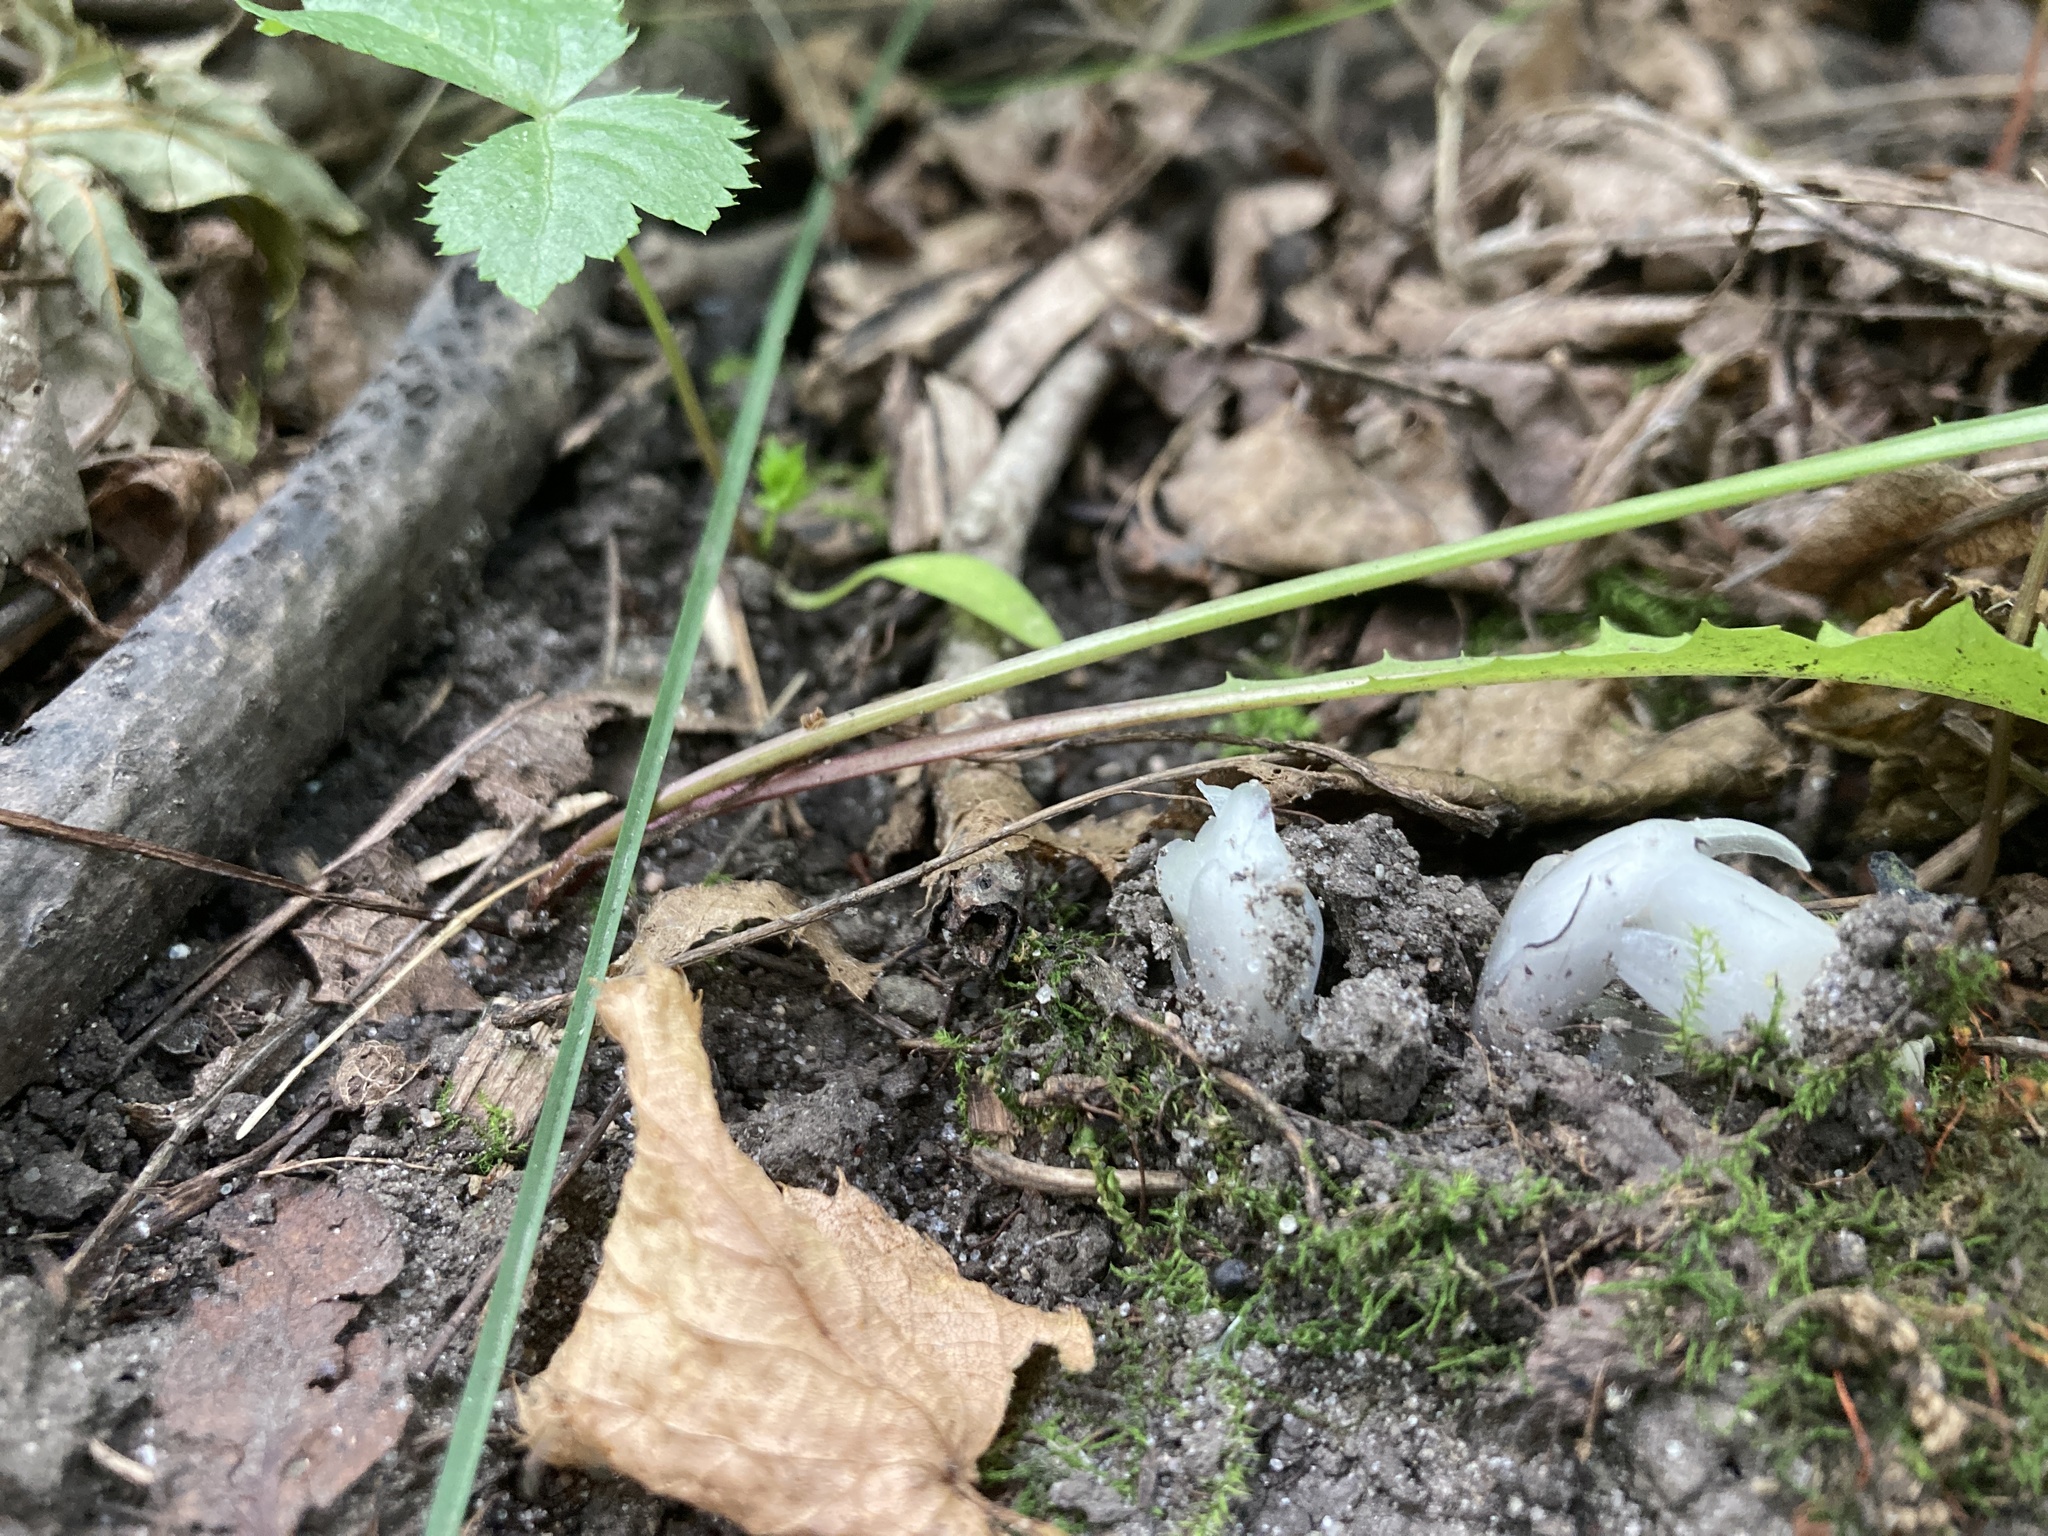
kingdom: Plantae
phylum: Tracheophyta
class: Magnoliopsida
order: Ericales
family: Ericaceae
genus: Monotropa
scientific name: Monotropa uniflora
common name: Convulsion root
